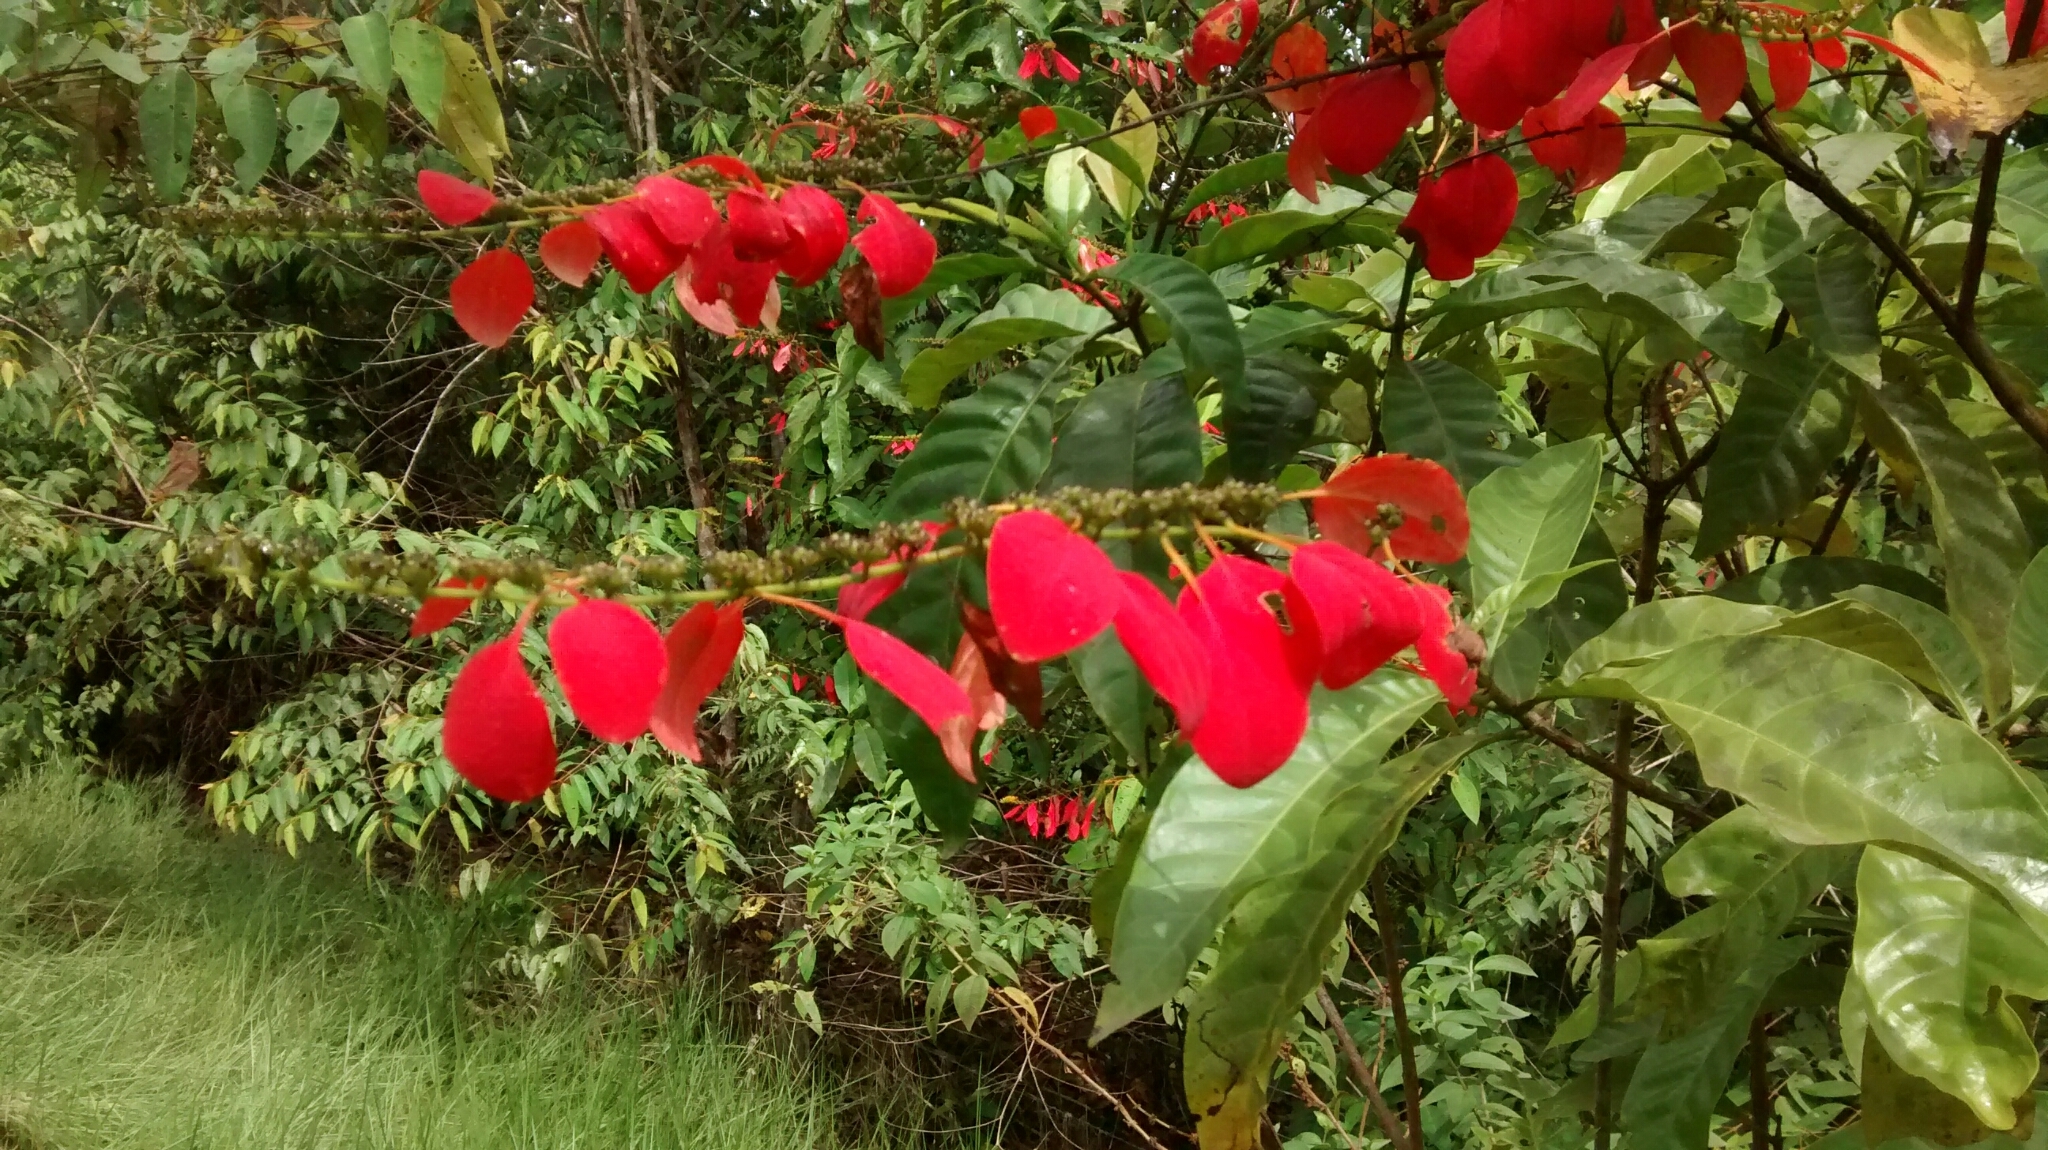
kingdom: Plantae
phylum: Tracheophyta
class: Magnoliopsida
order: Gentianales
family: Rubiaceae
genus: Warszewiczia
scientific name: Warszewiczia coccinea
